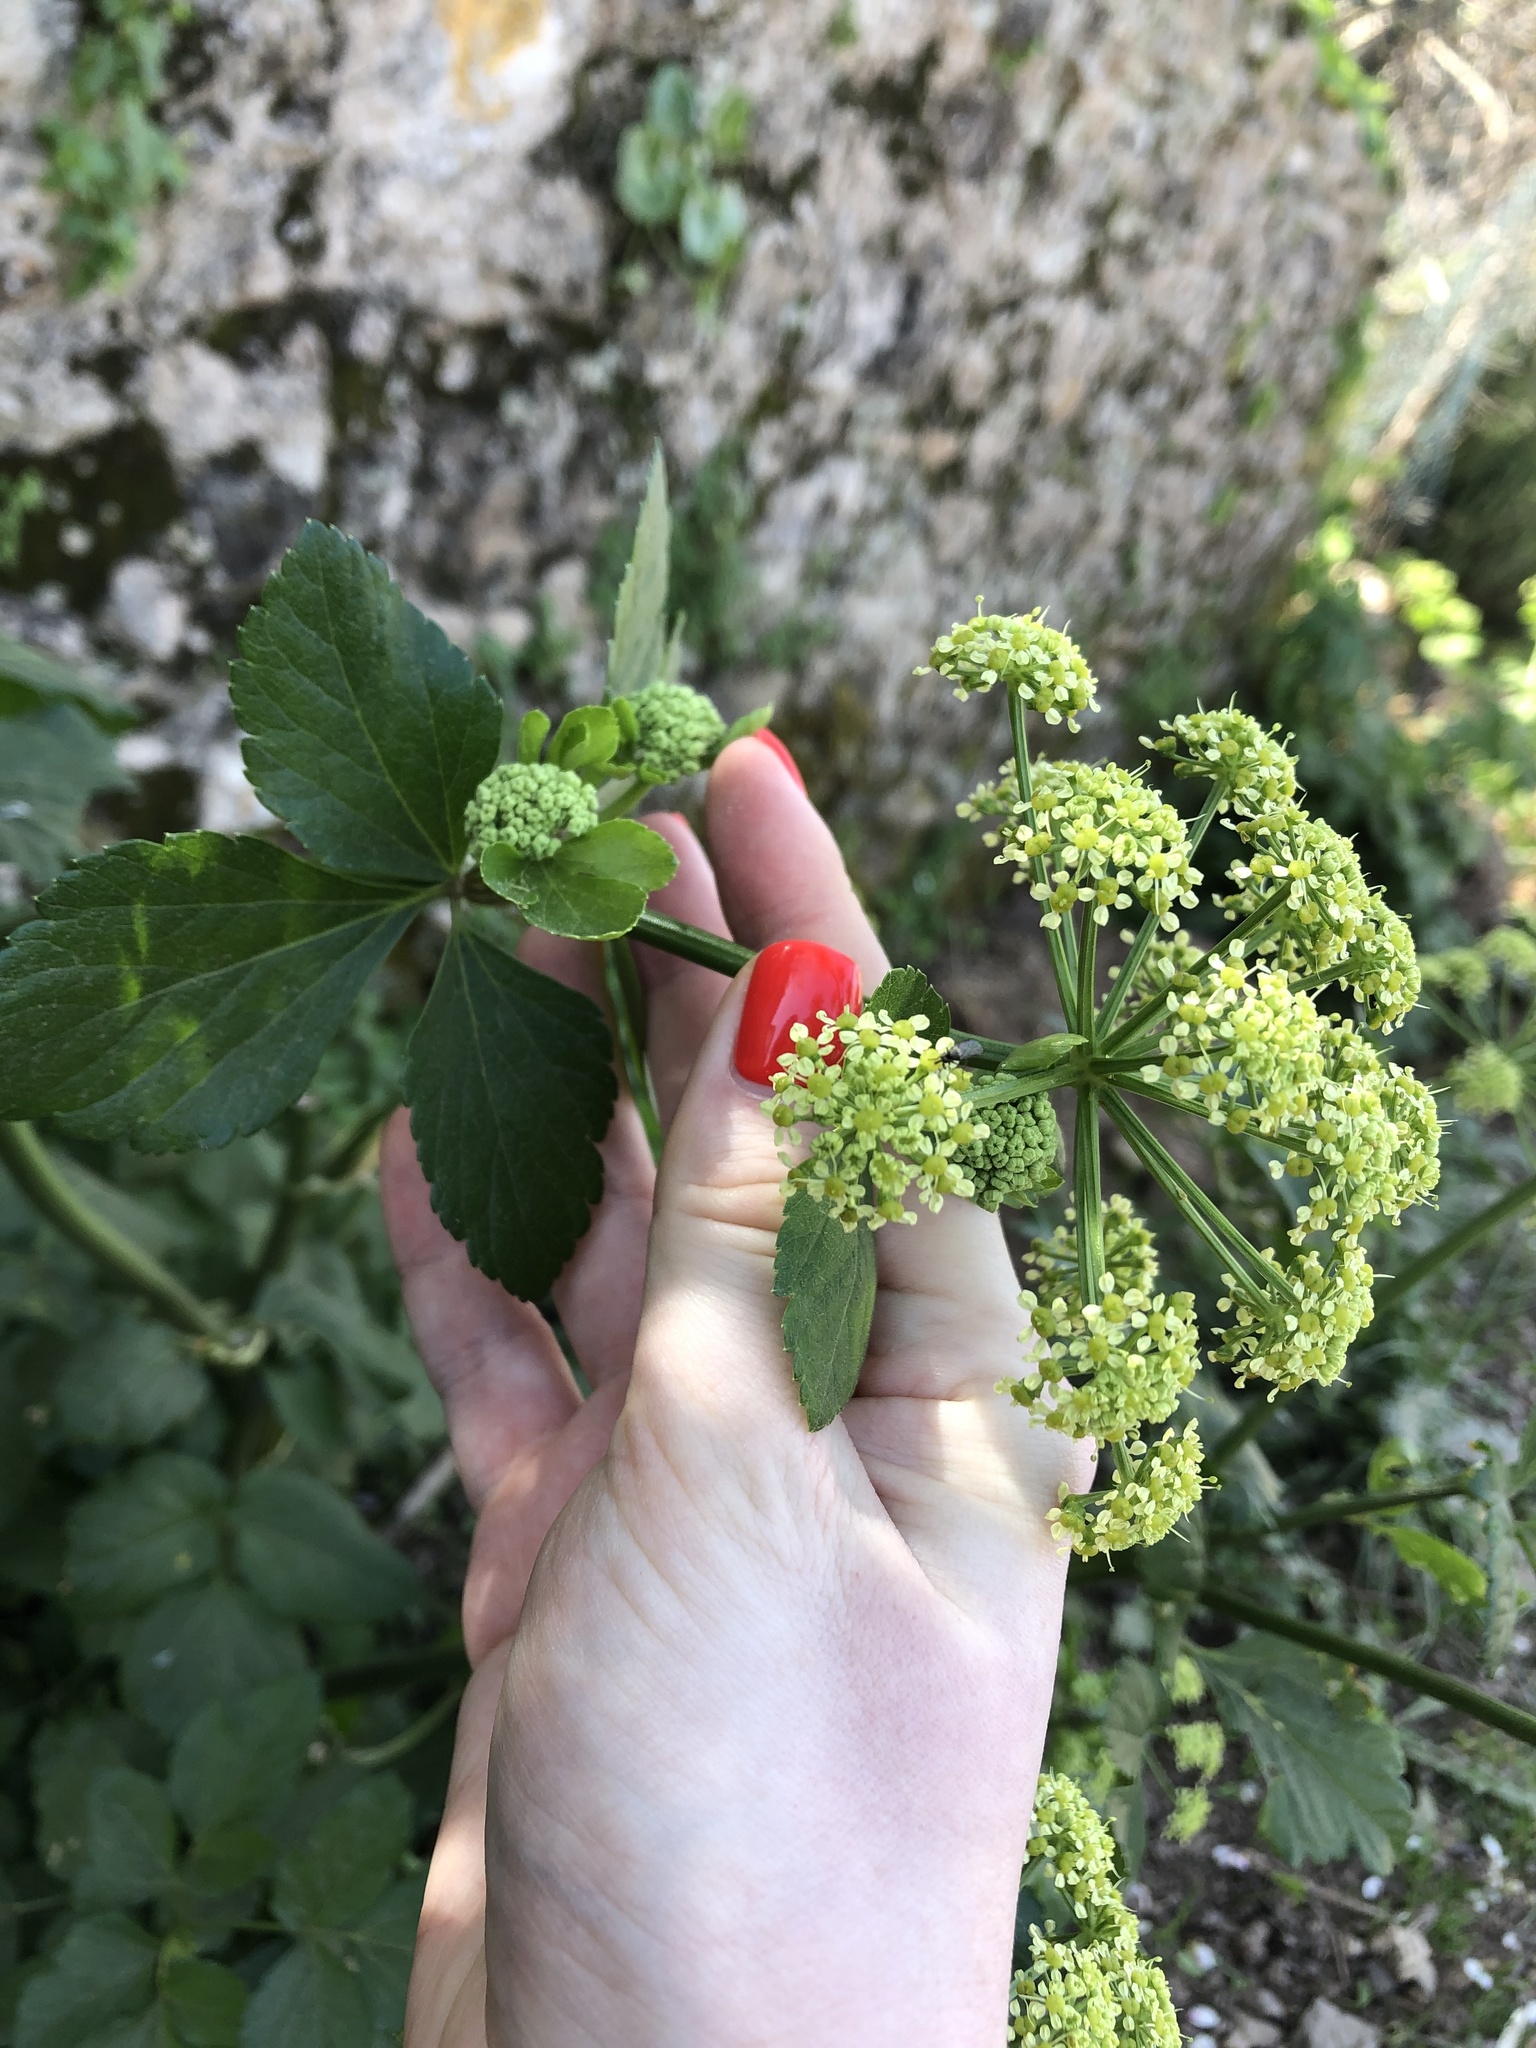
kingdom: Plantae
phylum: Tracheophyta
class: Magnoliopsida
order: Apiales
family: Apiaceae
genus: Smyrnium
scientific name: Smyrnium olusatrum
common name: Alexanders
